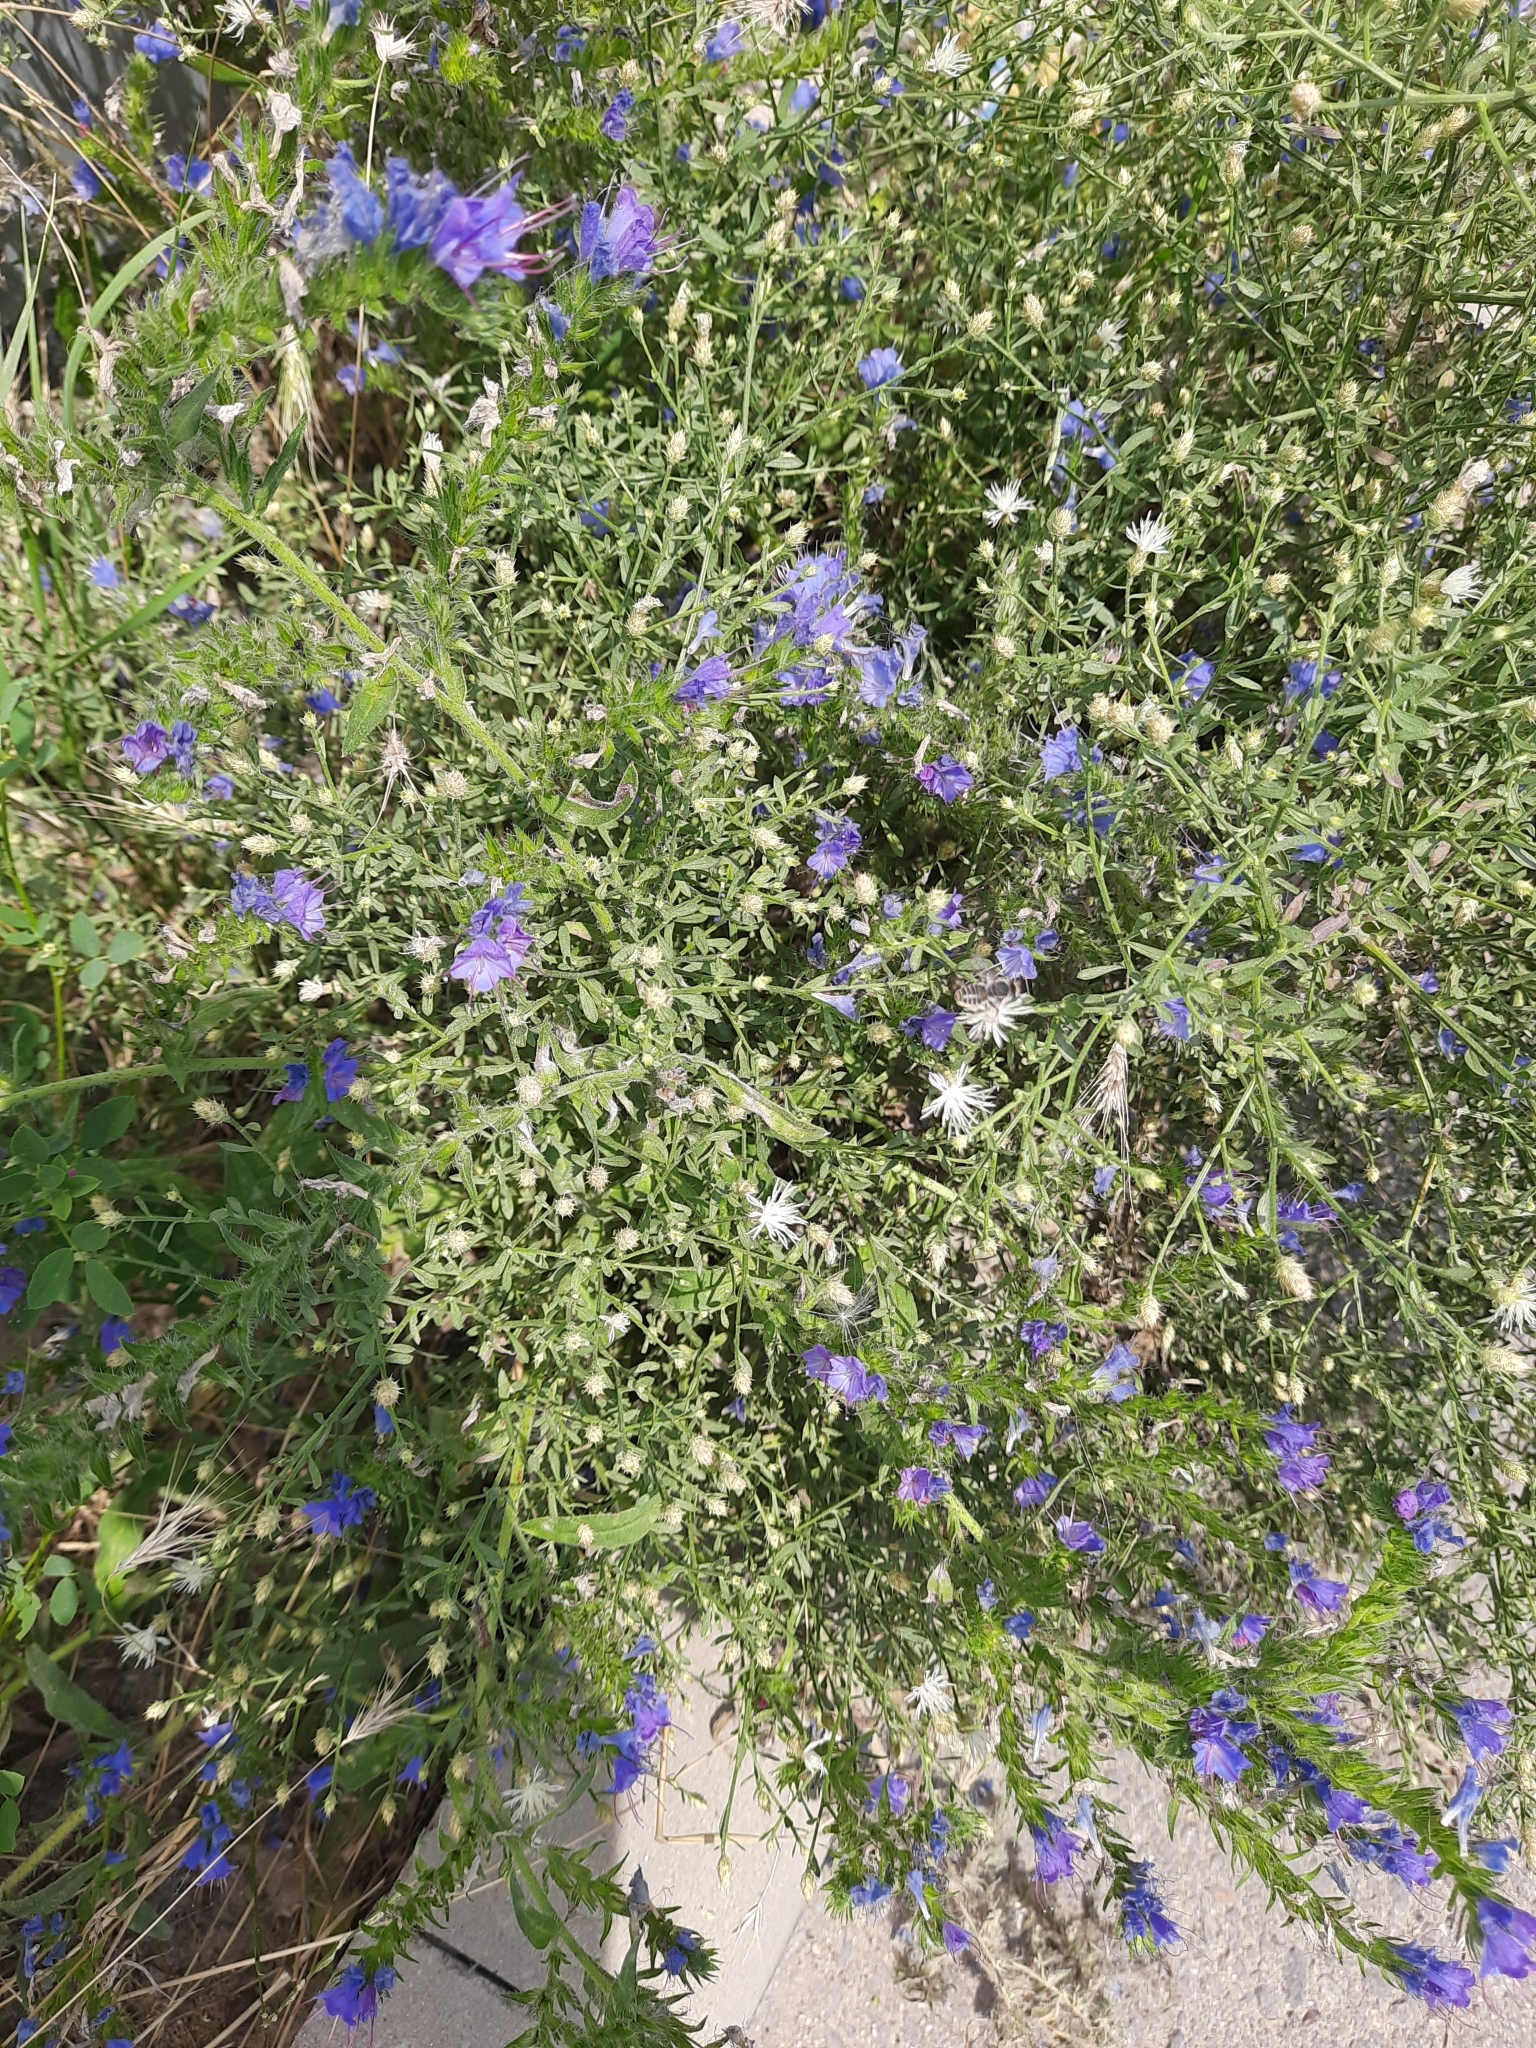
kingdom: Plantae
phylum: Tracheophyta
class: Magnoliopsida
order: Boraginales
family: Boraginaceae
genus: Echium
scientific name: Echium vulgare
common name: Common viper's bugloss
